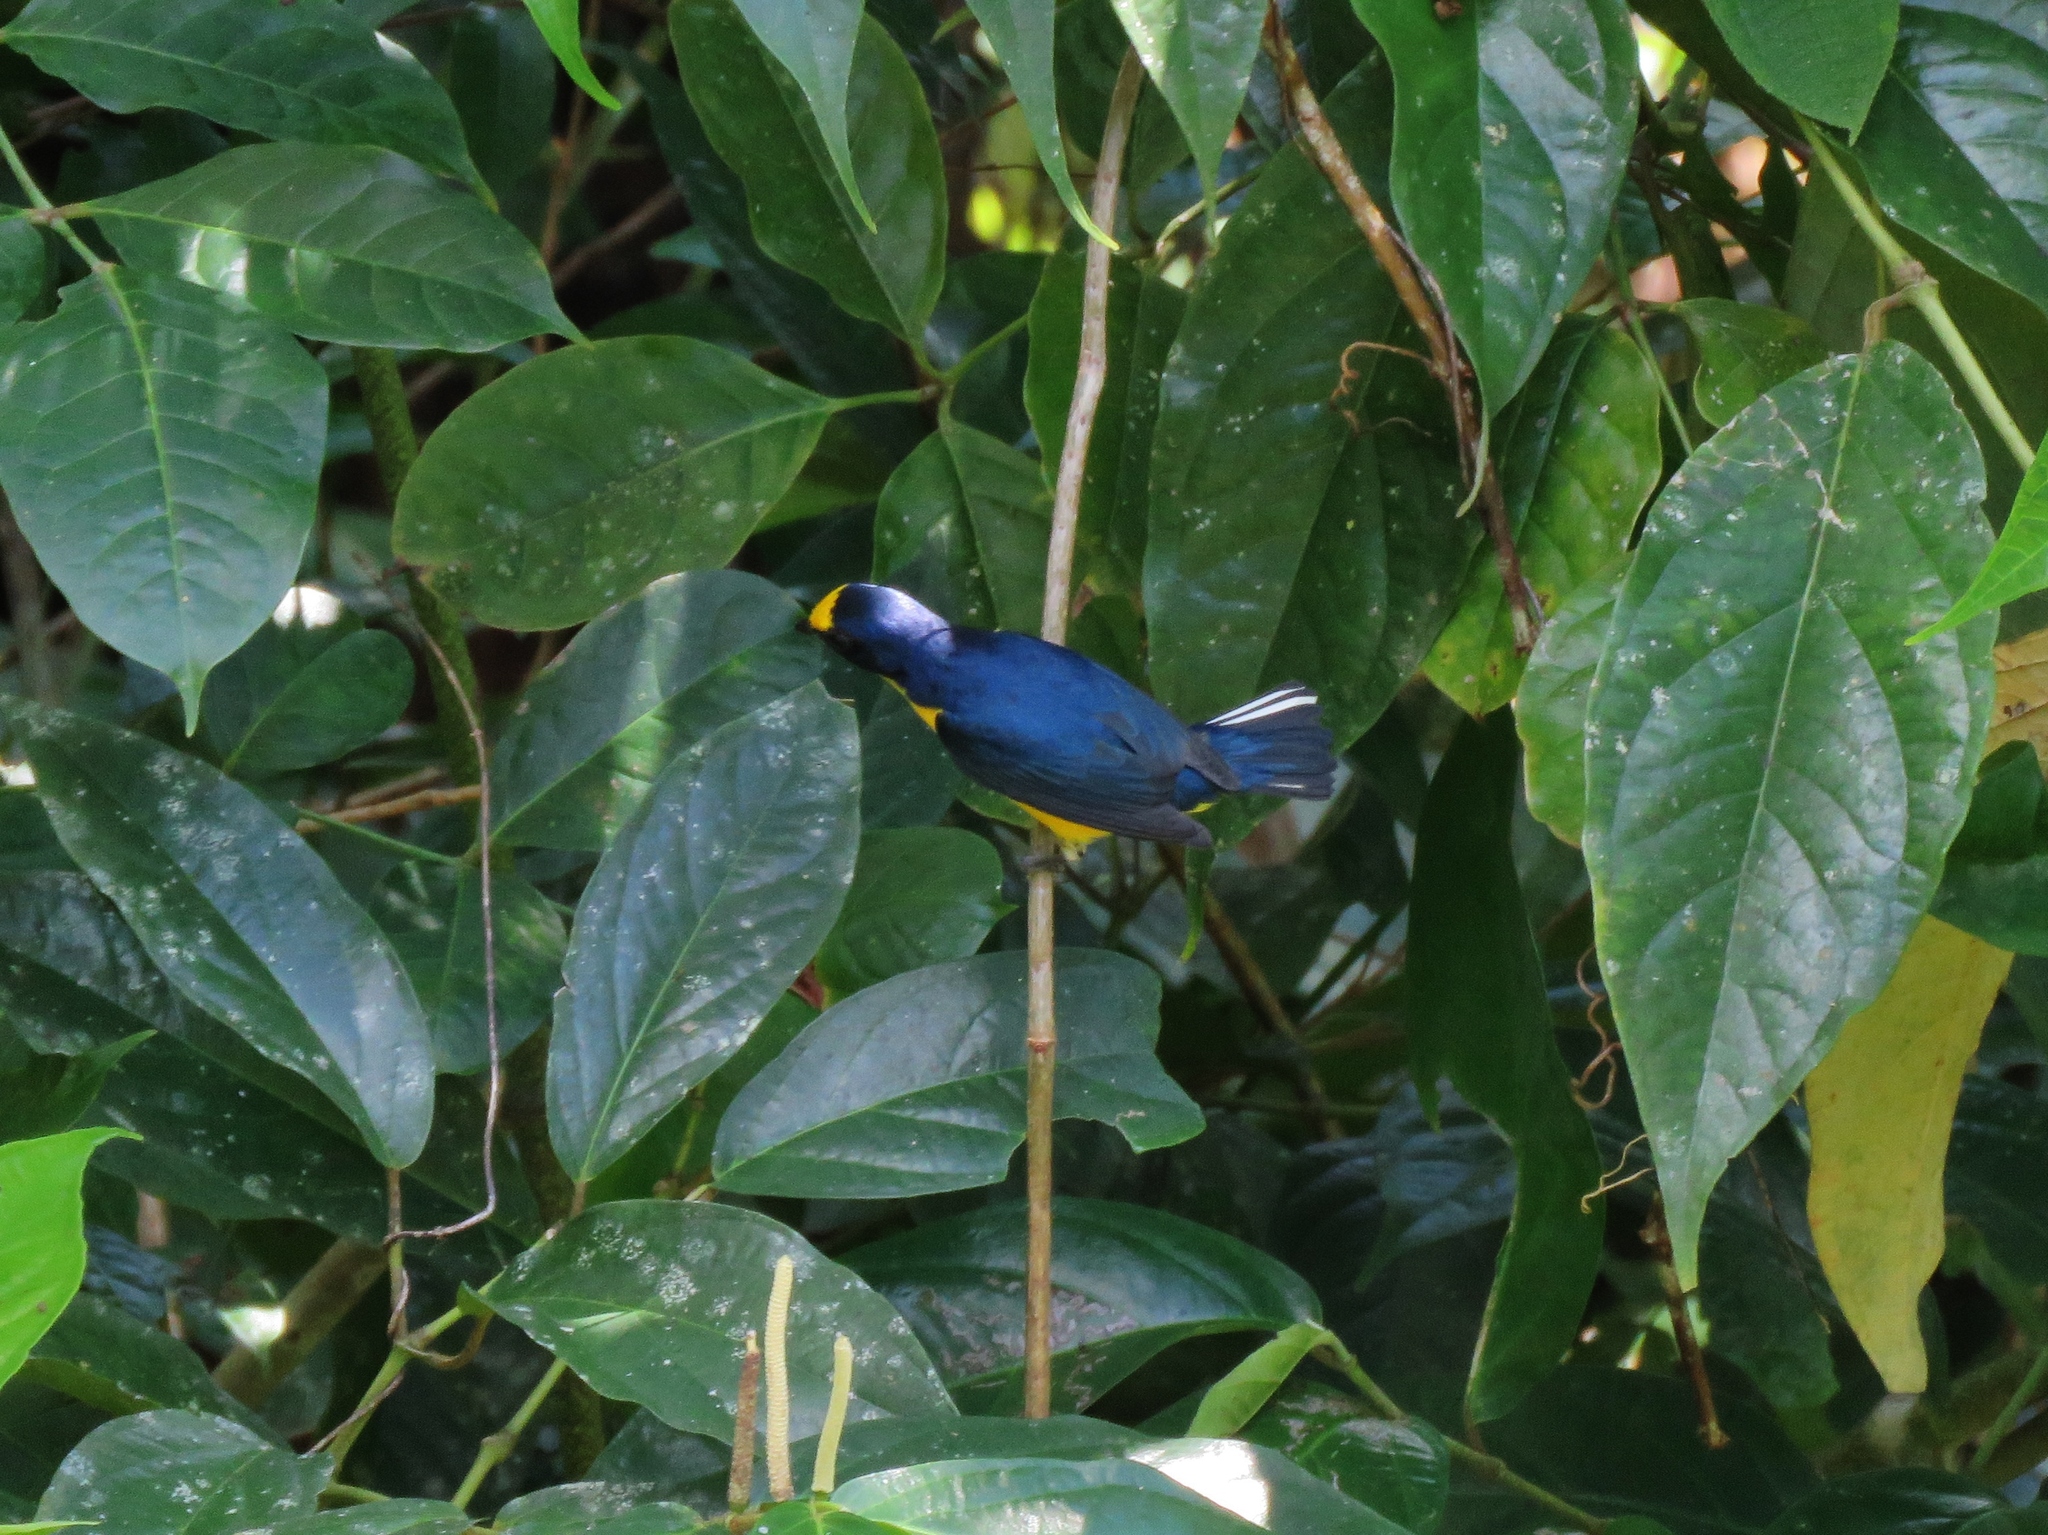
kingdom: Animalia
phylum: Chordata
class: Aves
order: Passeriformes
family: Fringillidae
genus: Euphonia
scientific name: Euphonia hirundinacea
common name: Yellow-throated euphonia
